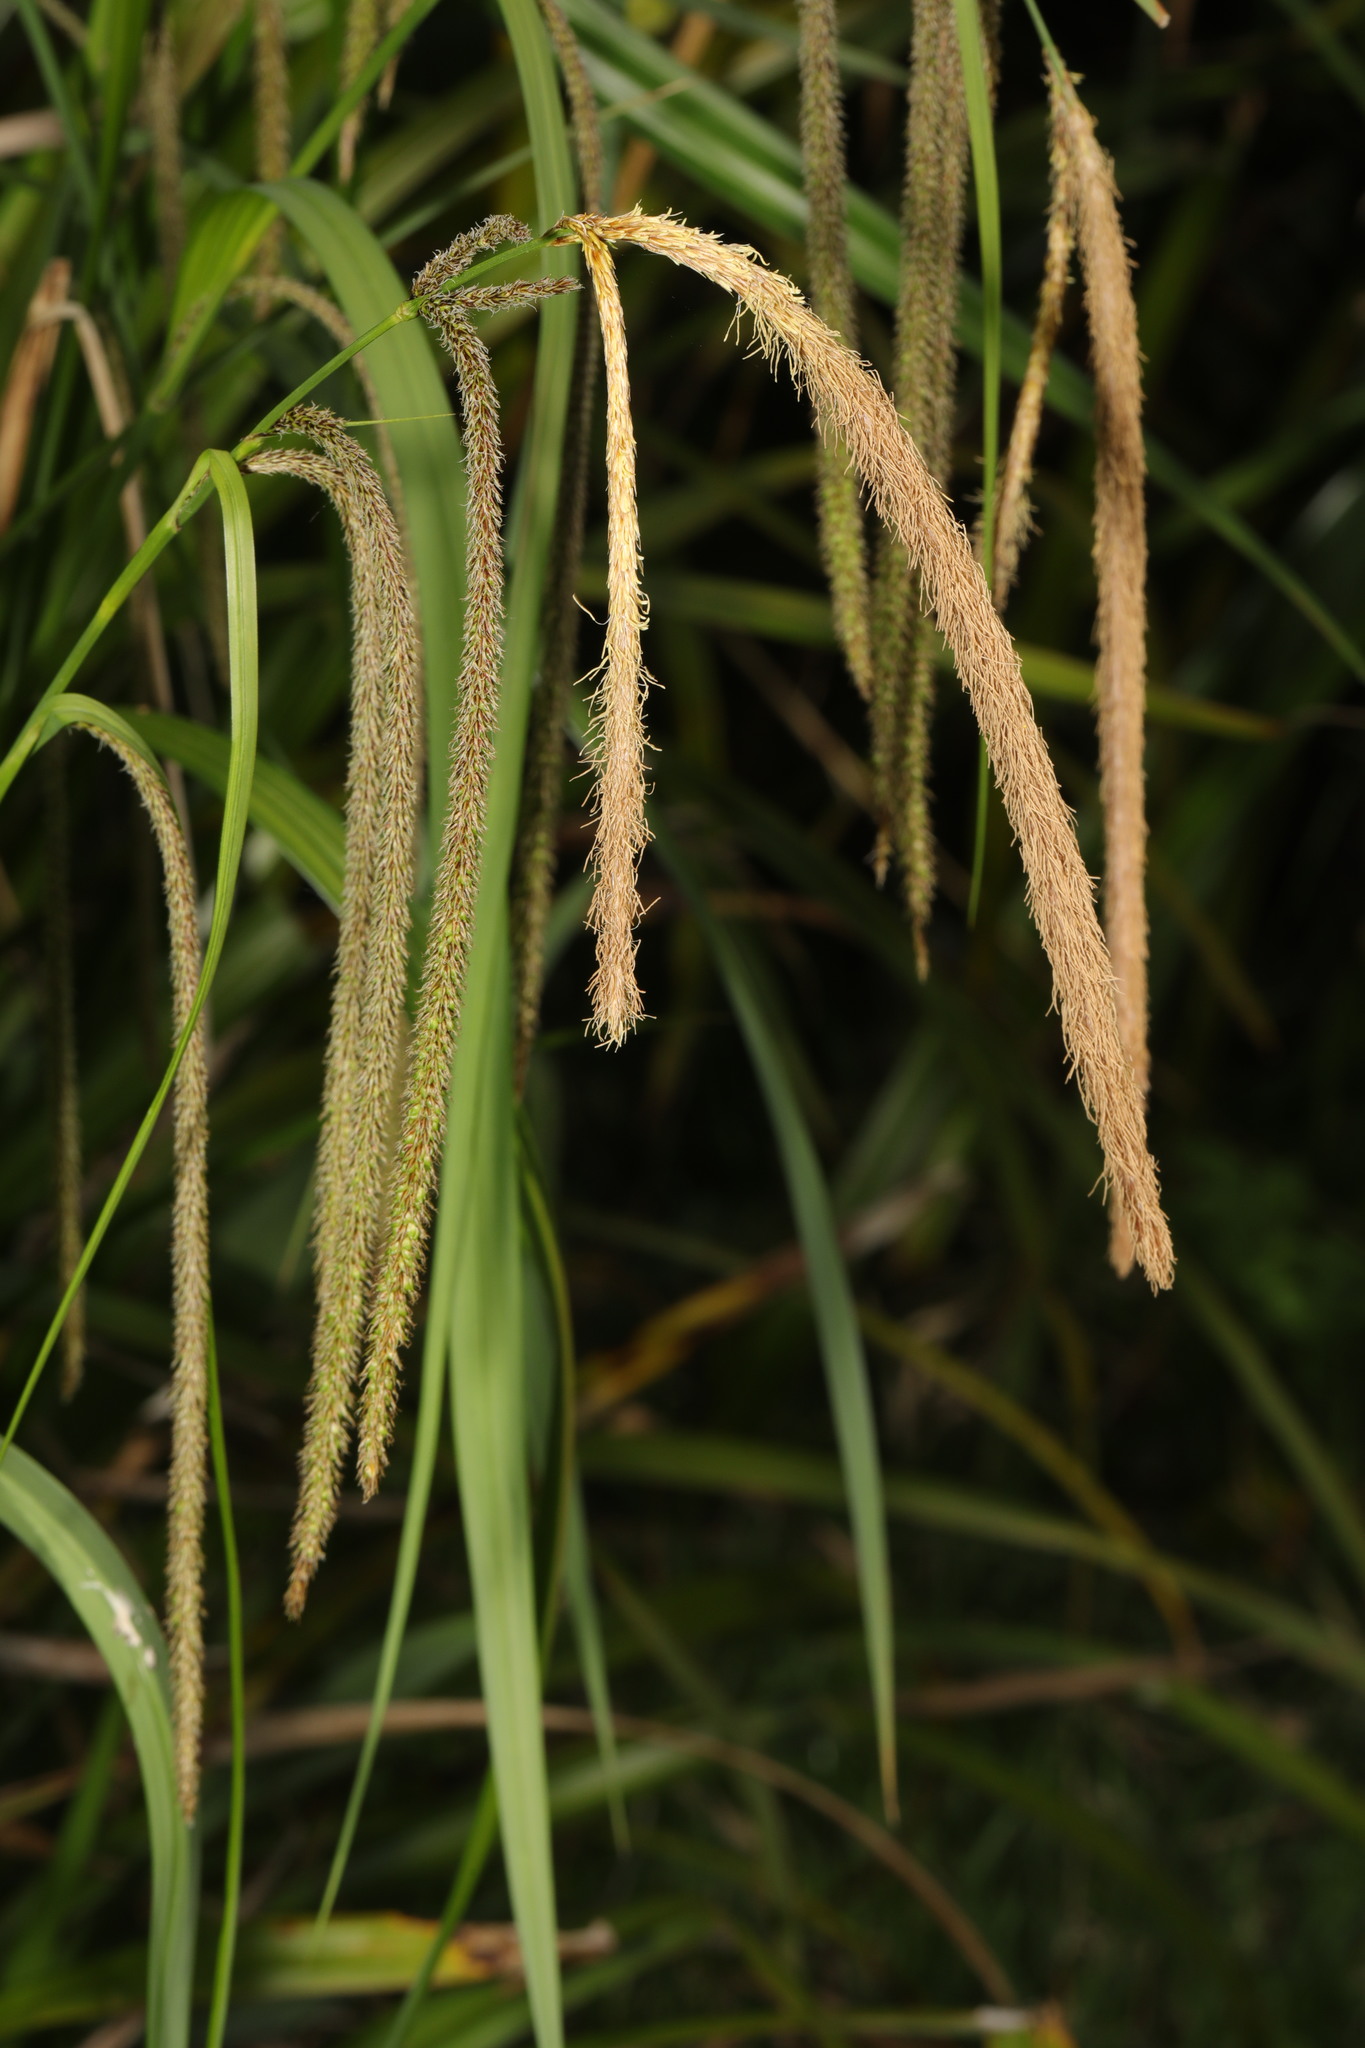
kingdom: Plantae
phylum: Tracheophyta
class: Liliopsida
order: Poales
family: Cyperaceae
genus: Carex
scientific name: Carex pendula
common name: Pendulous sedge
